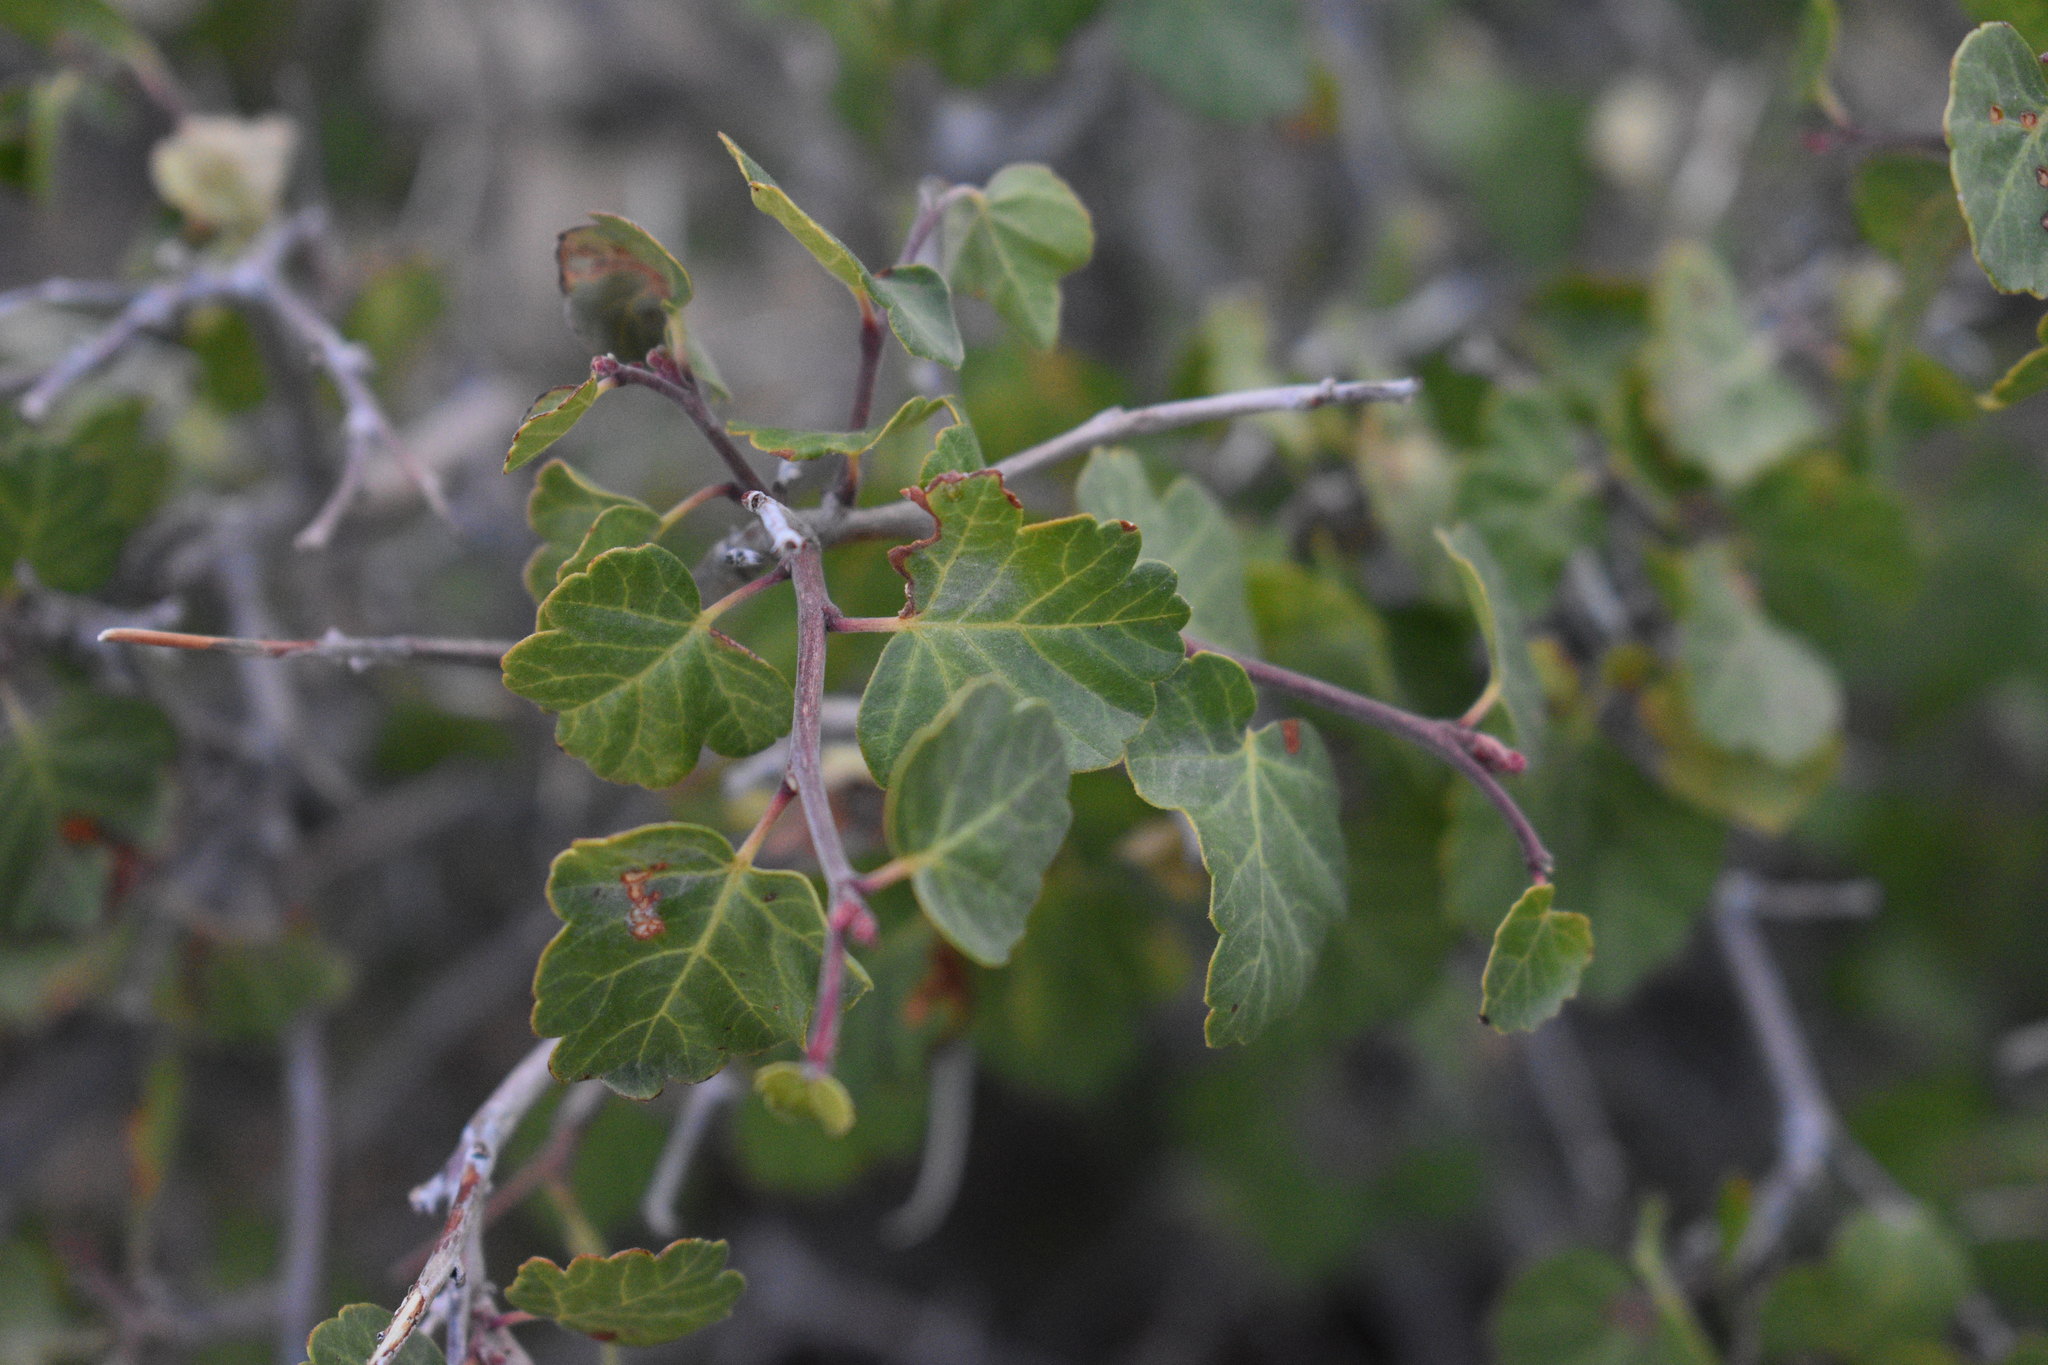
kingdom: Plantae
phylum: Tracheophyta
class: Magnoliopsida
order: Sapindales
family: Anacardiaceae
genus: Rhus
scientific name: Rhus aromatica
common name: Aromatic sumac
